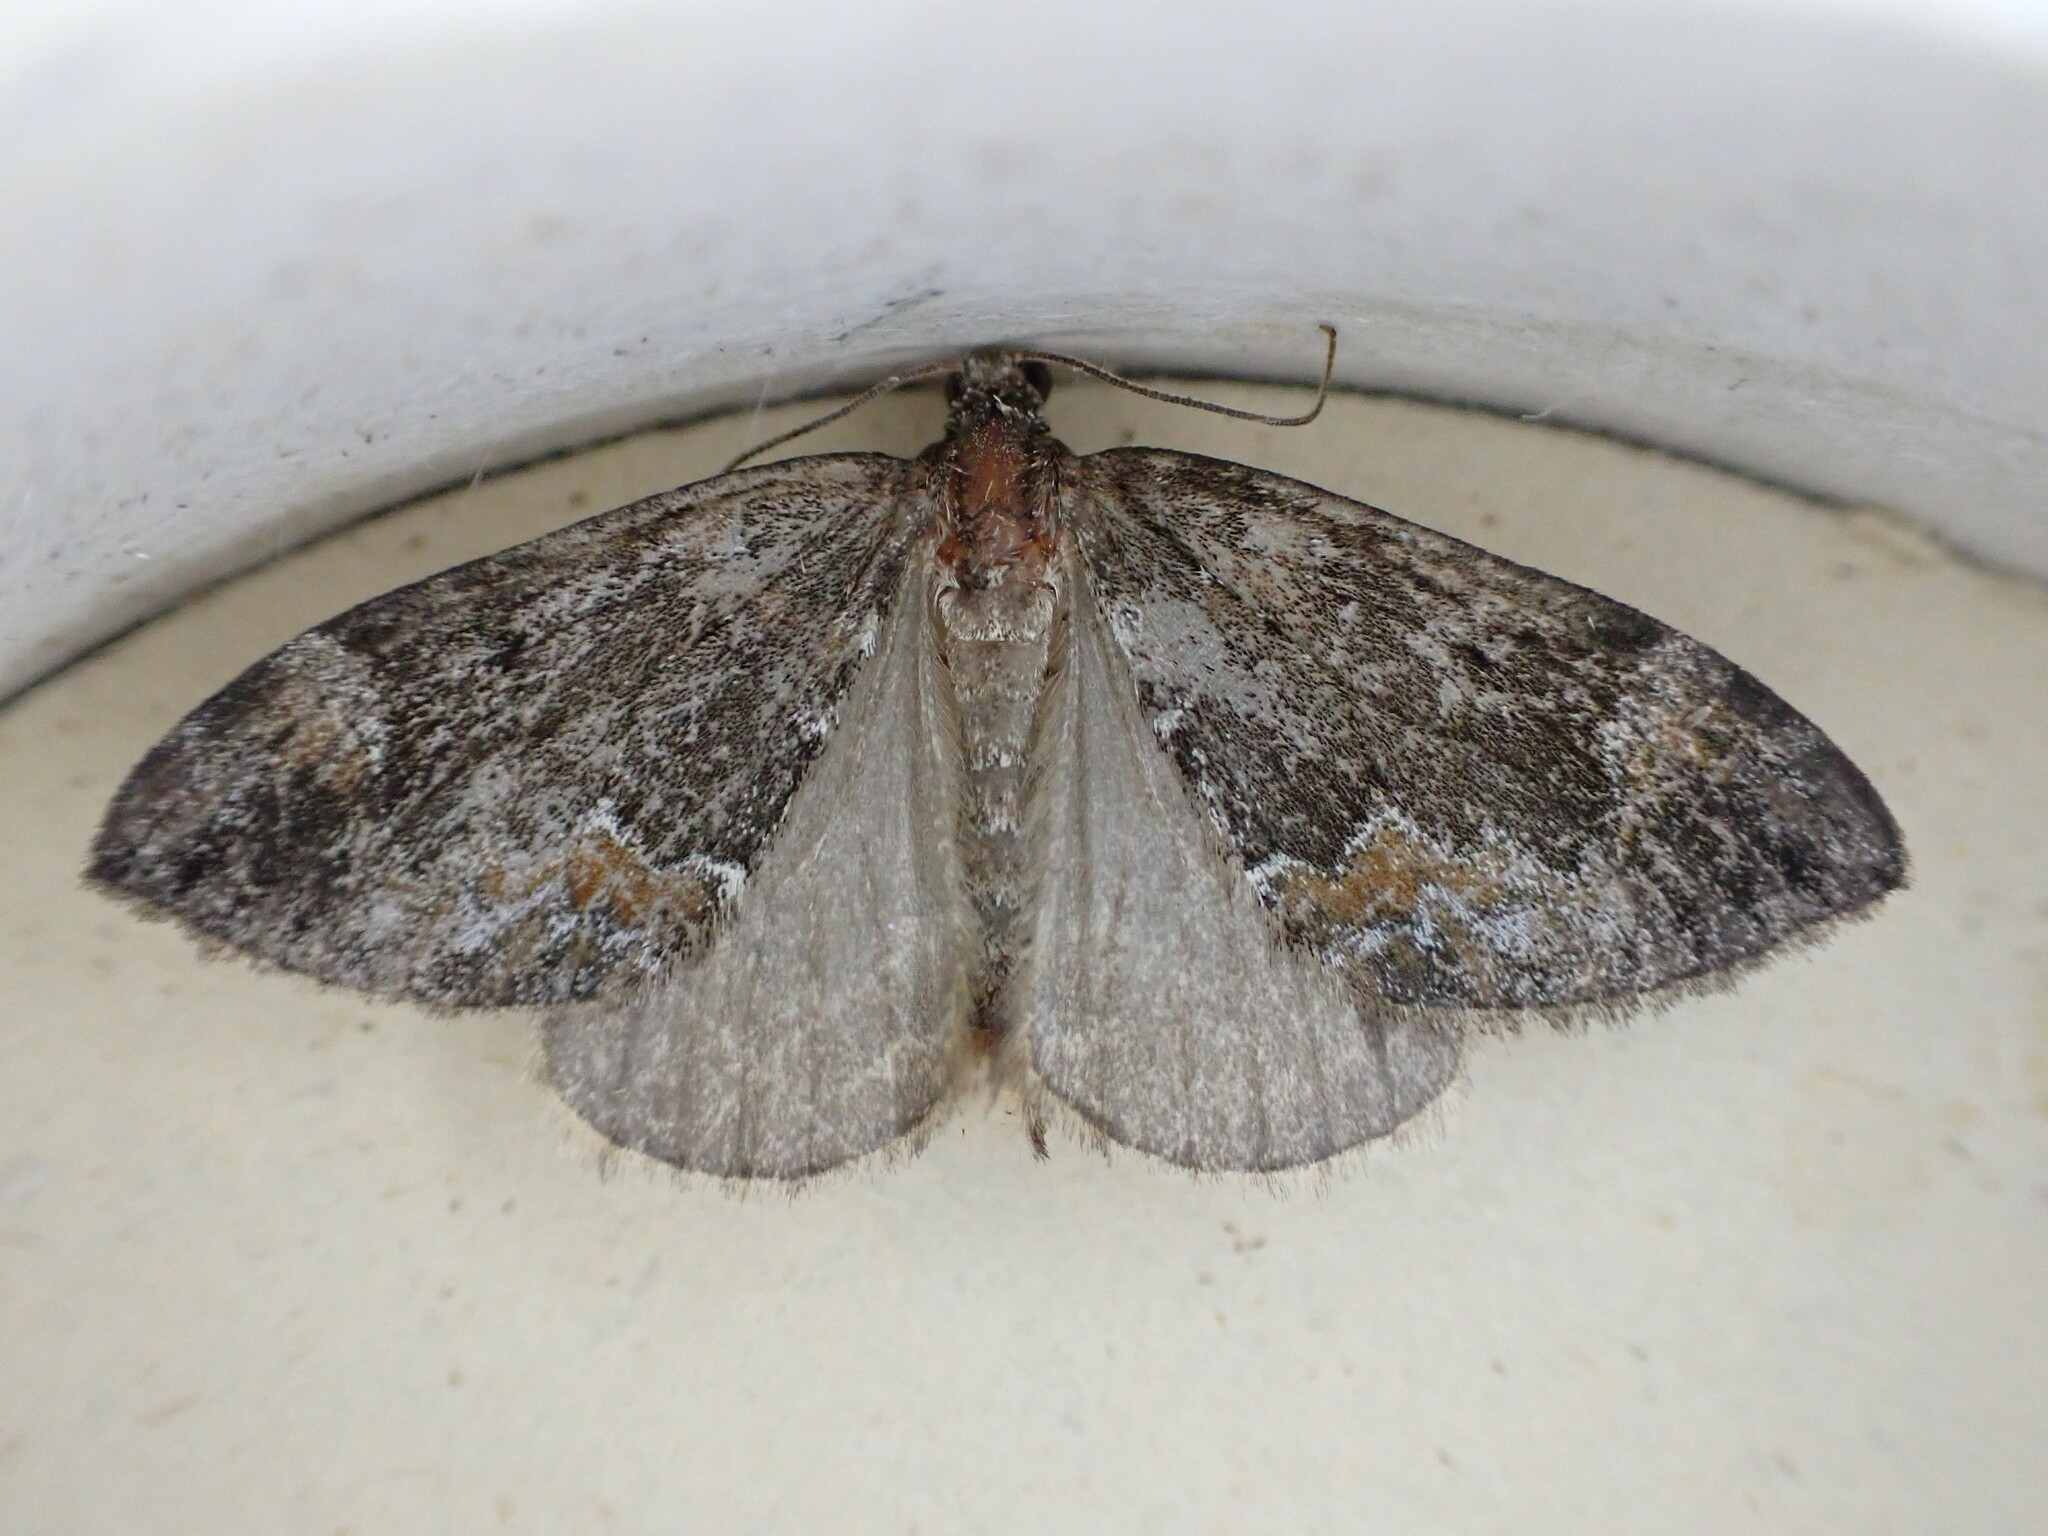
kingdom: Animalia
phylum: Arthropoda
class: Insecta
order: Lepidoptera
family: Geometridae
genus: Dysstroma
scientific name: Dysstroma truncata
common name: Common marbled carpet
